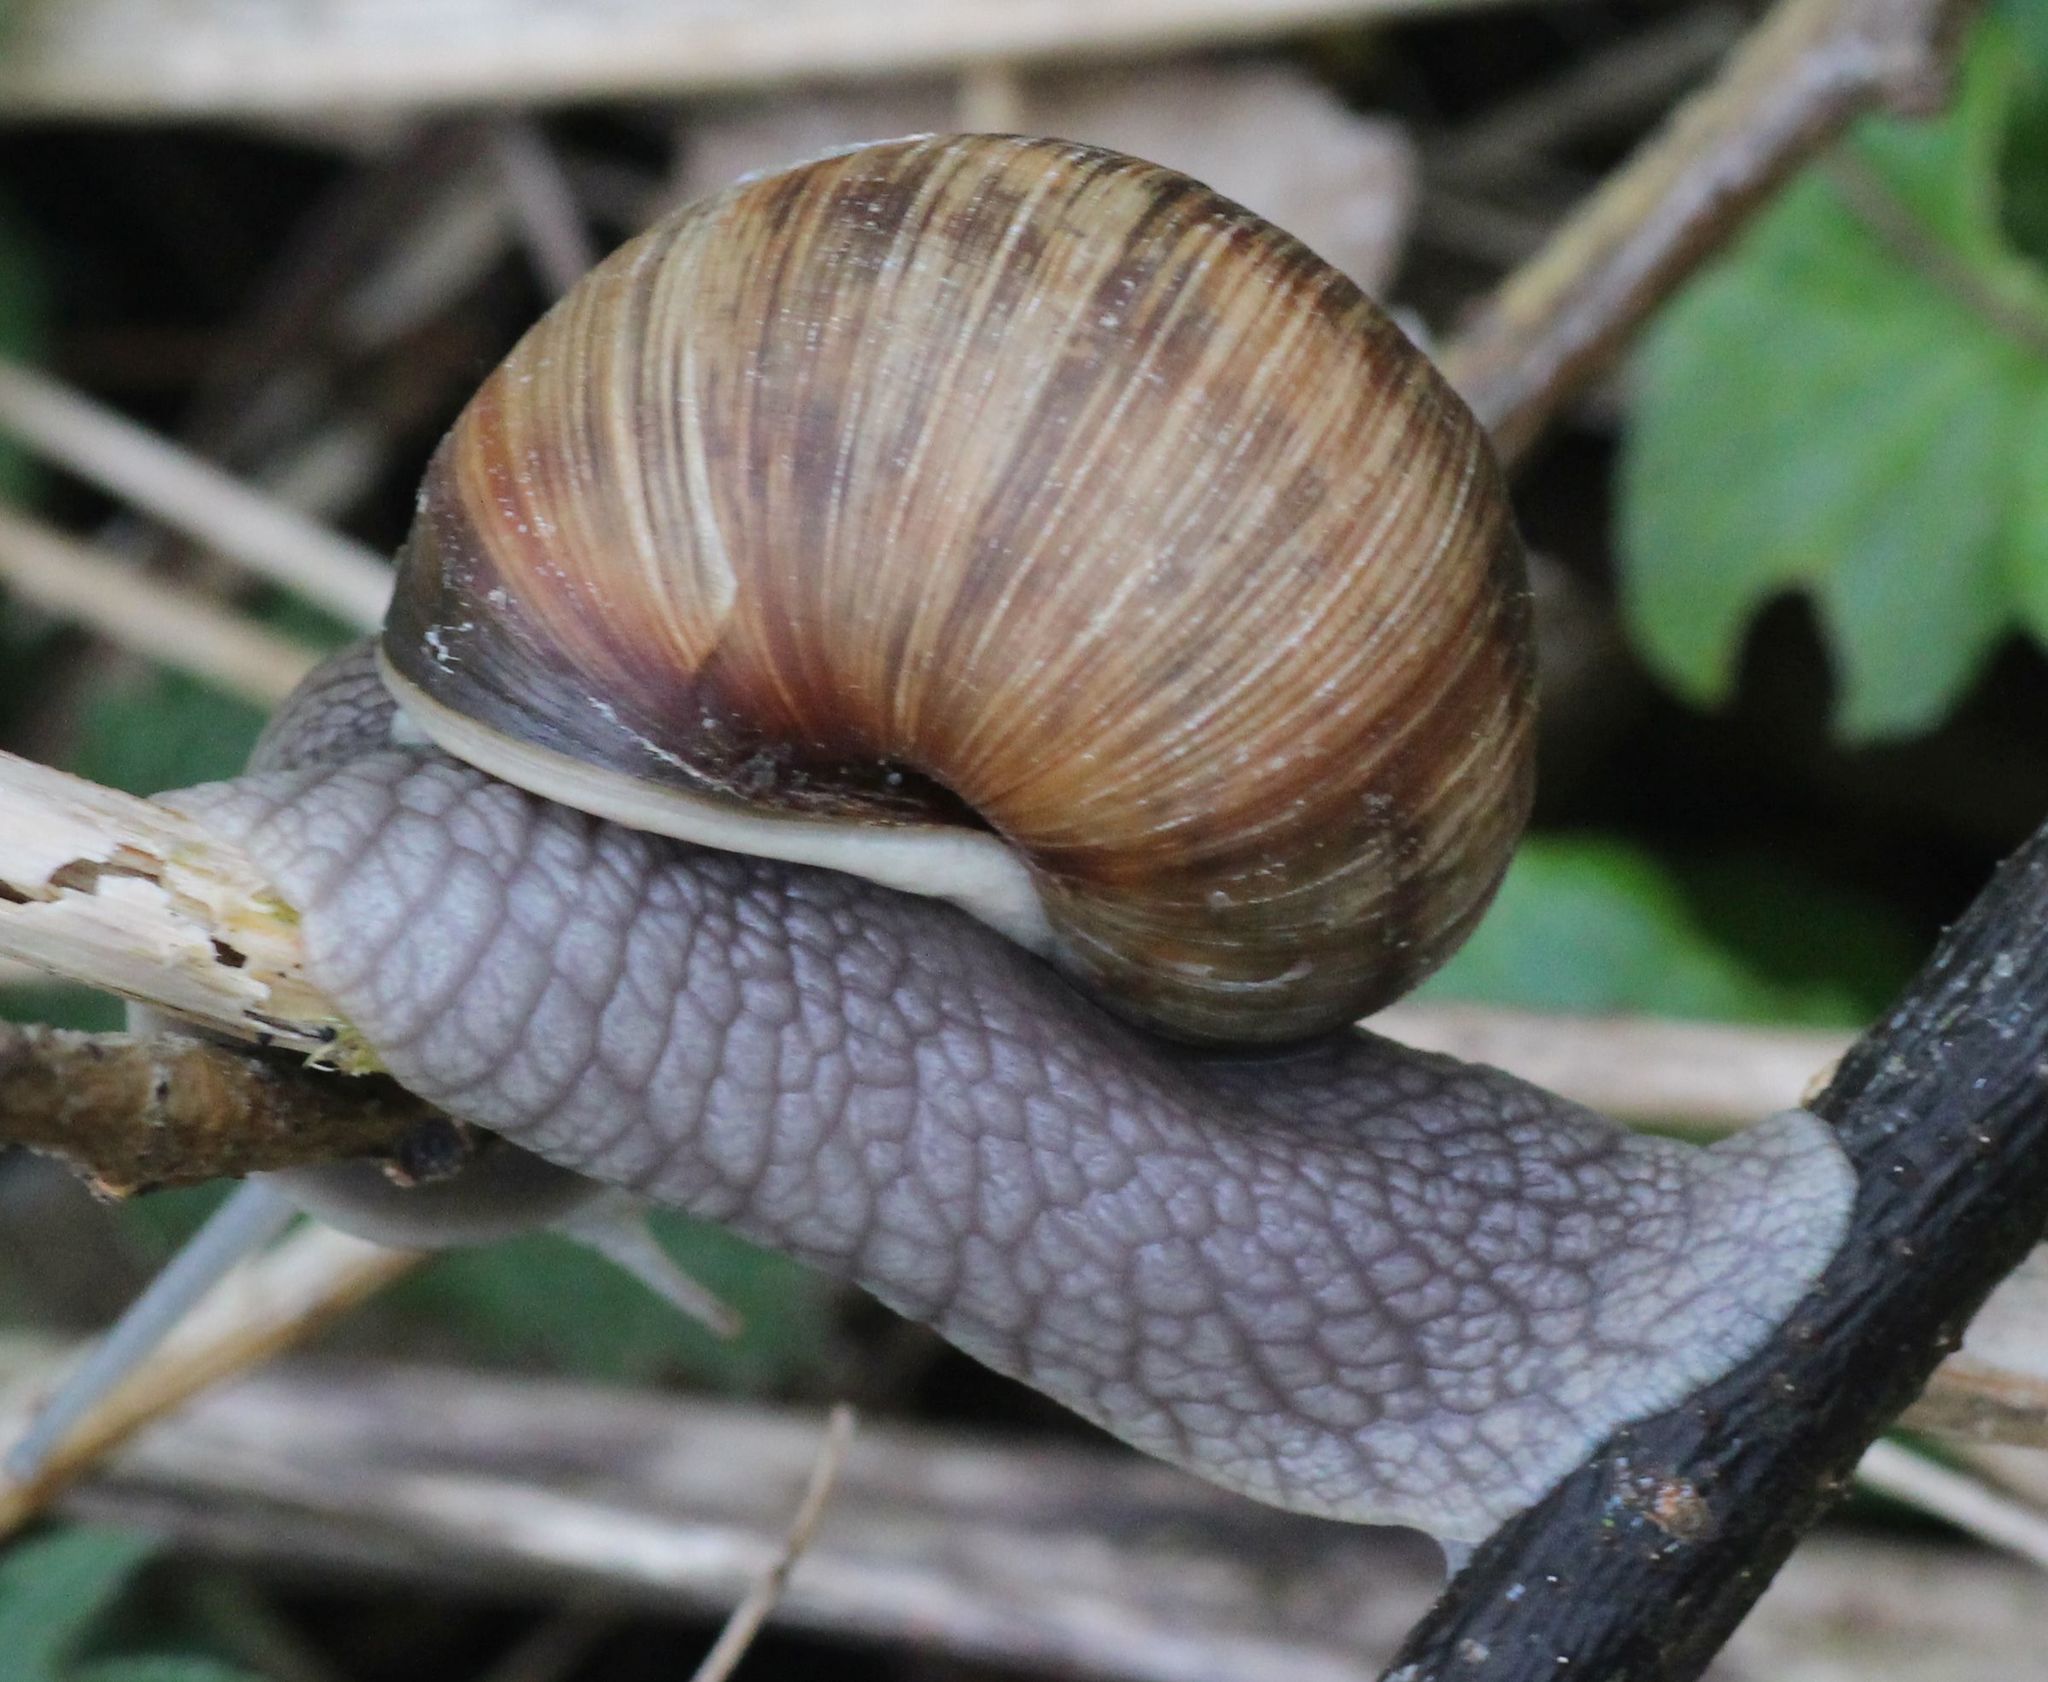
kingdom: Animalia
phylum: Mollusca
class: Gastropoda
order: Stylommatophora
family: Helicidae
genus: Helix
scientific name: Helix pomatia
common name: Roman snail
